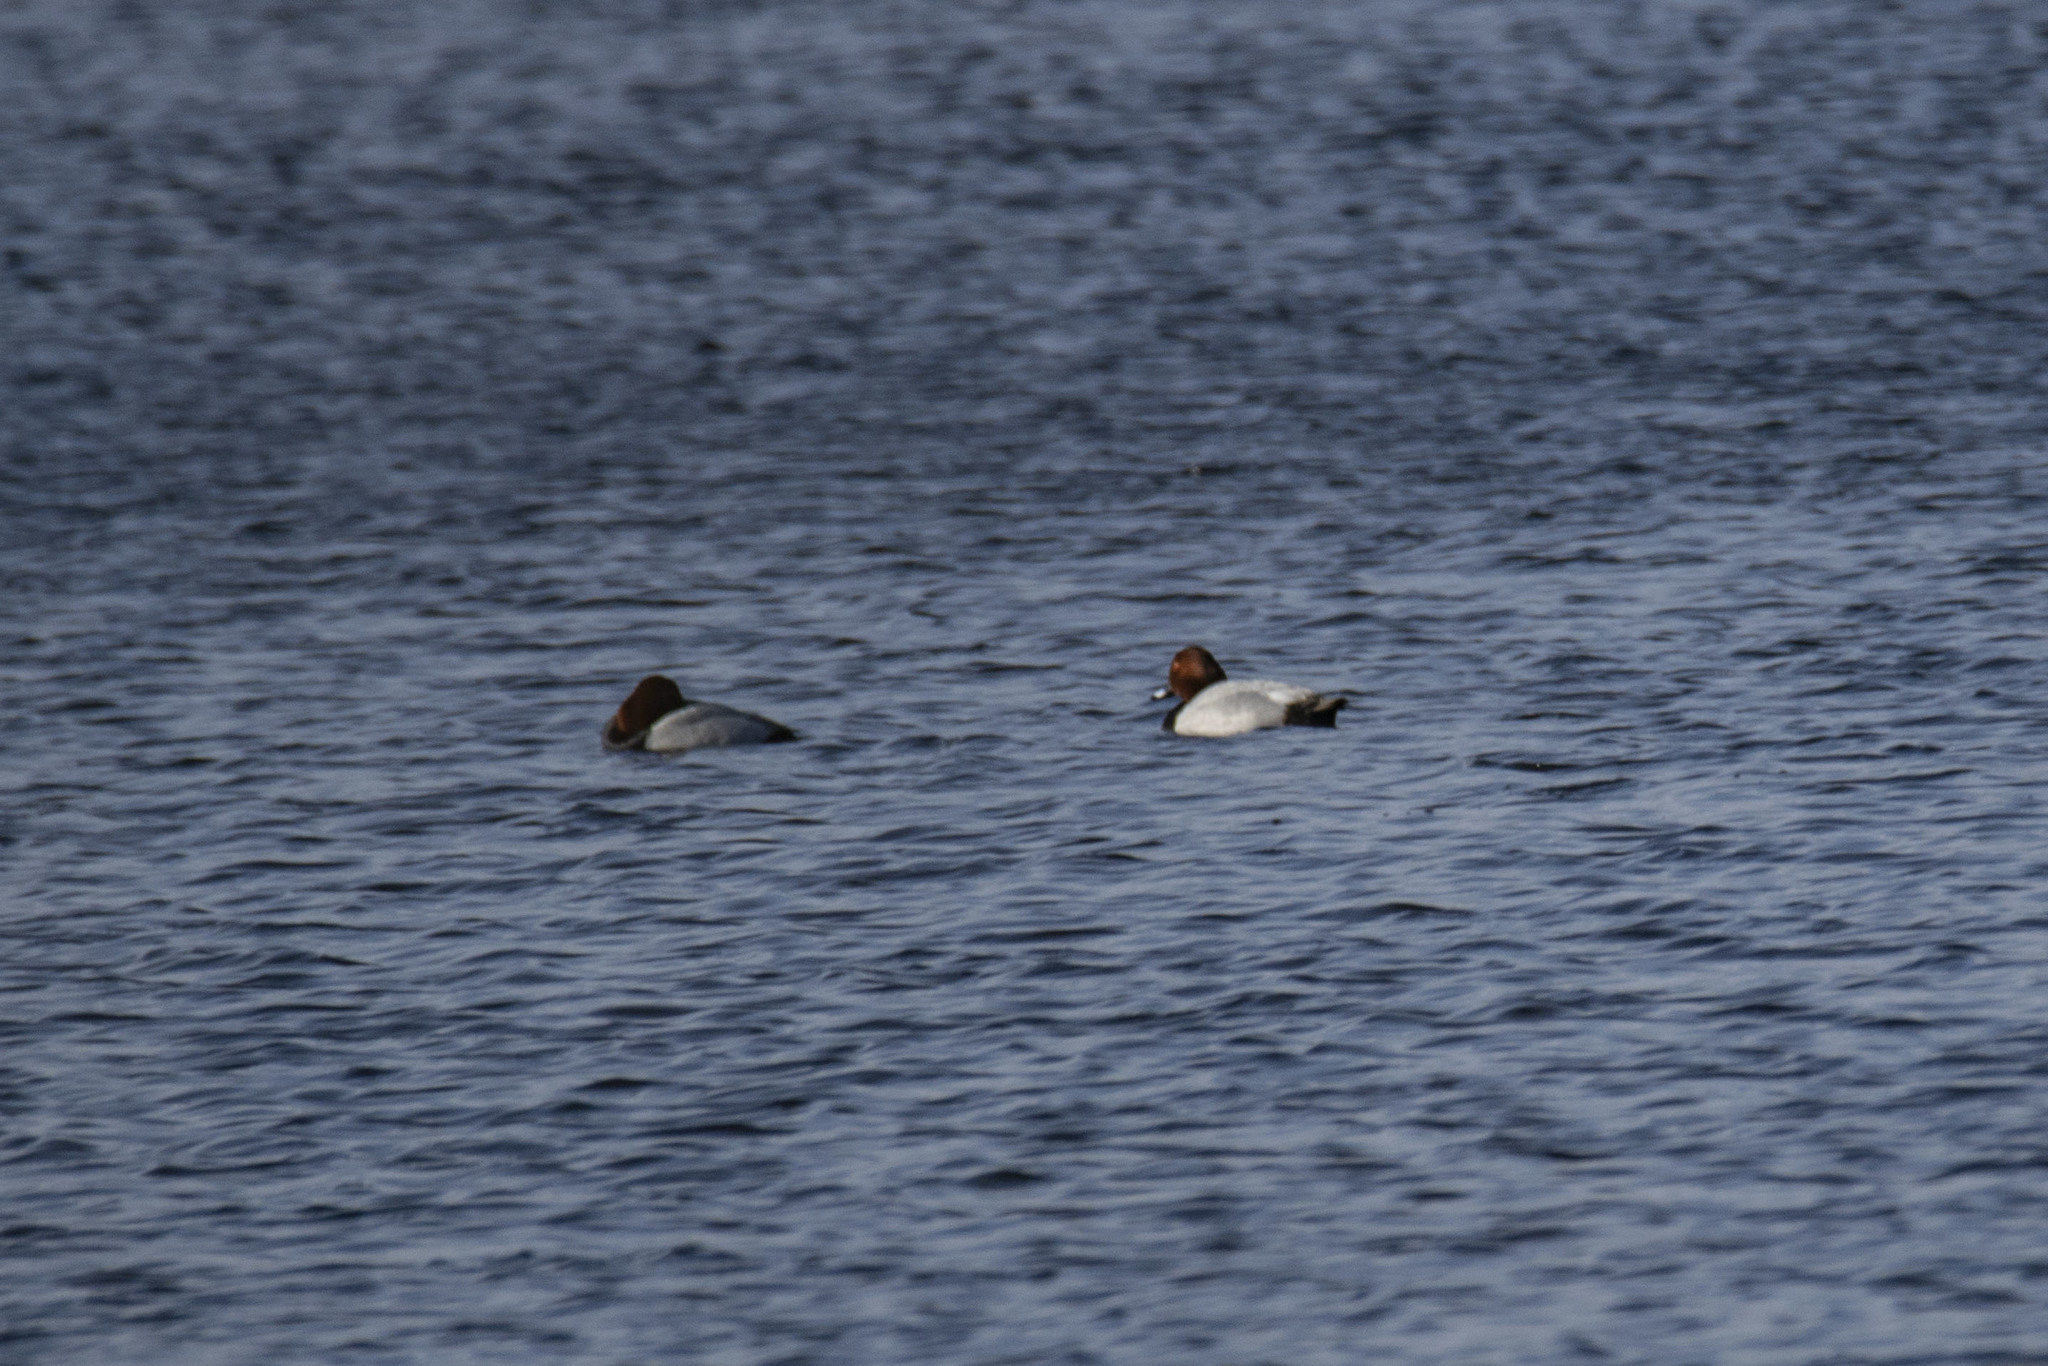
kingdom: Animalia
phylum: Chordata
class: Aves
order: Anseriformes
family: Anatidae
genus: Aythya
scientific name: Aythya ferina
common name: Common pochard
